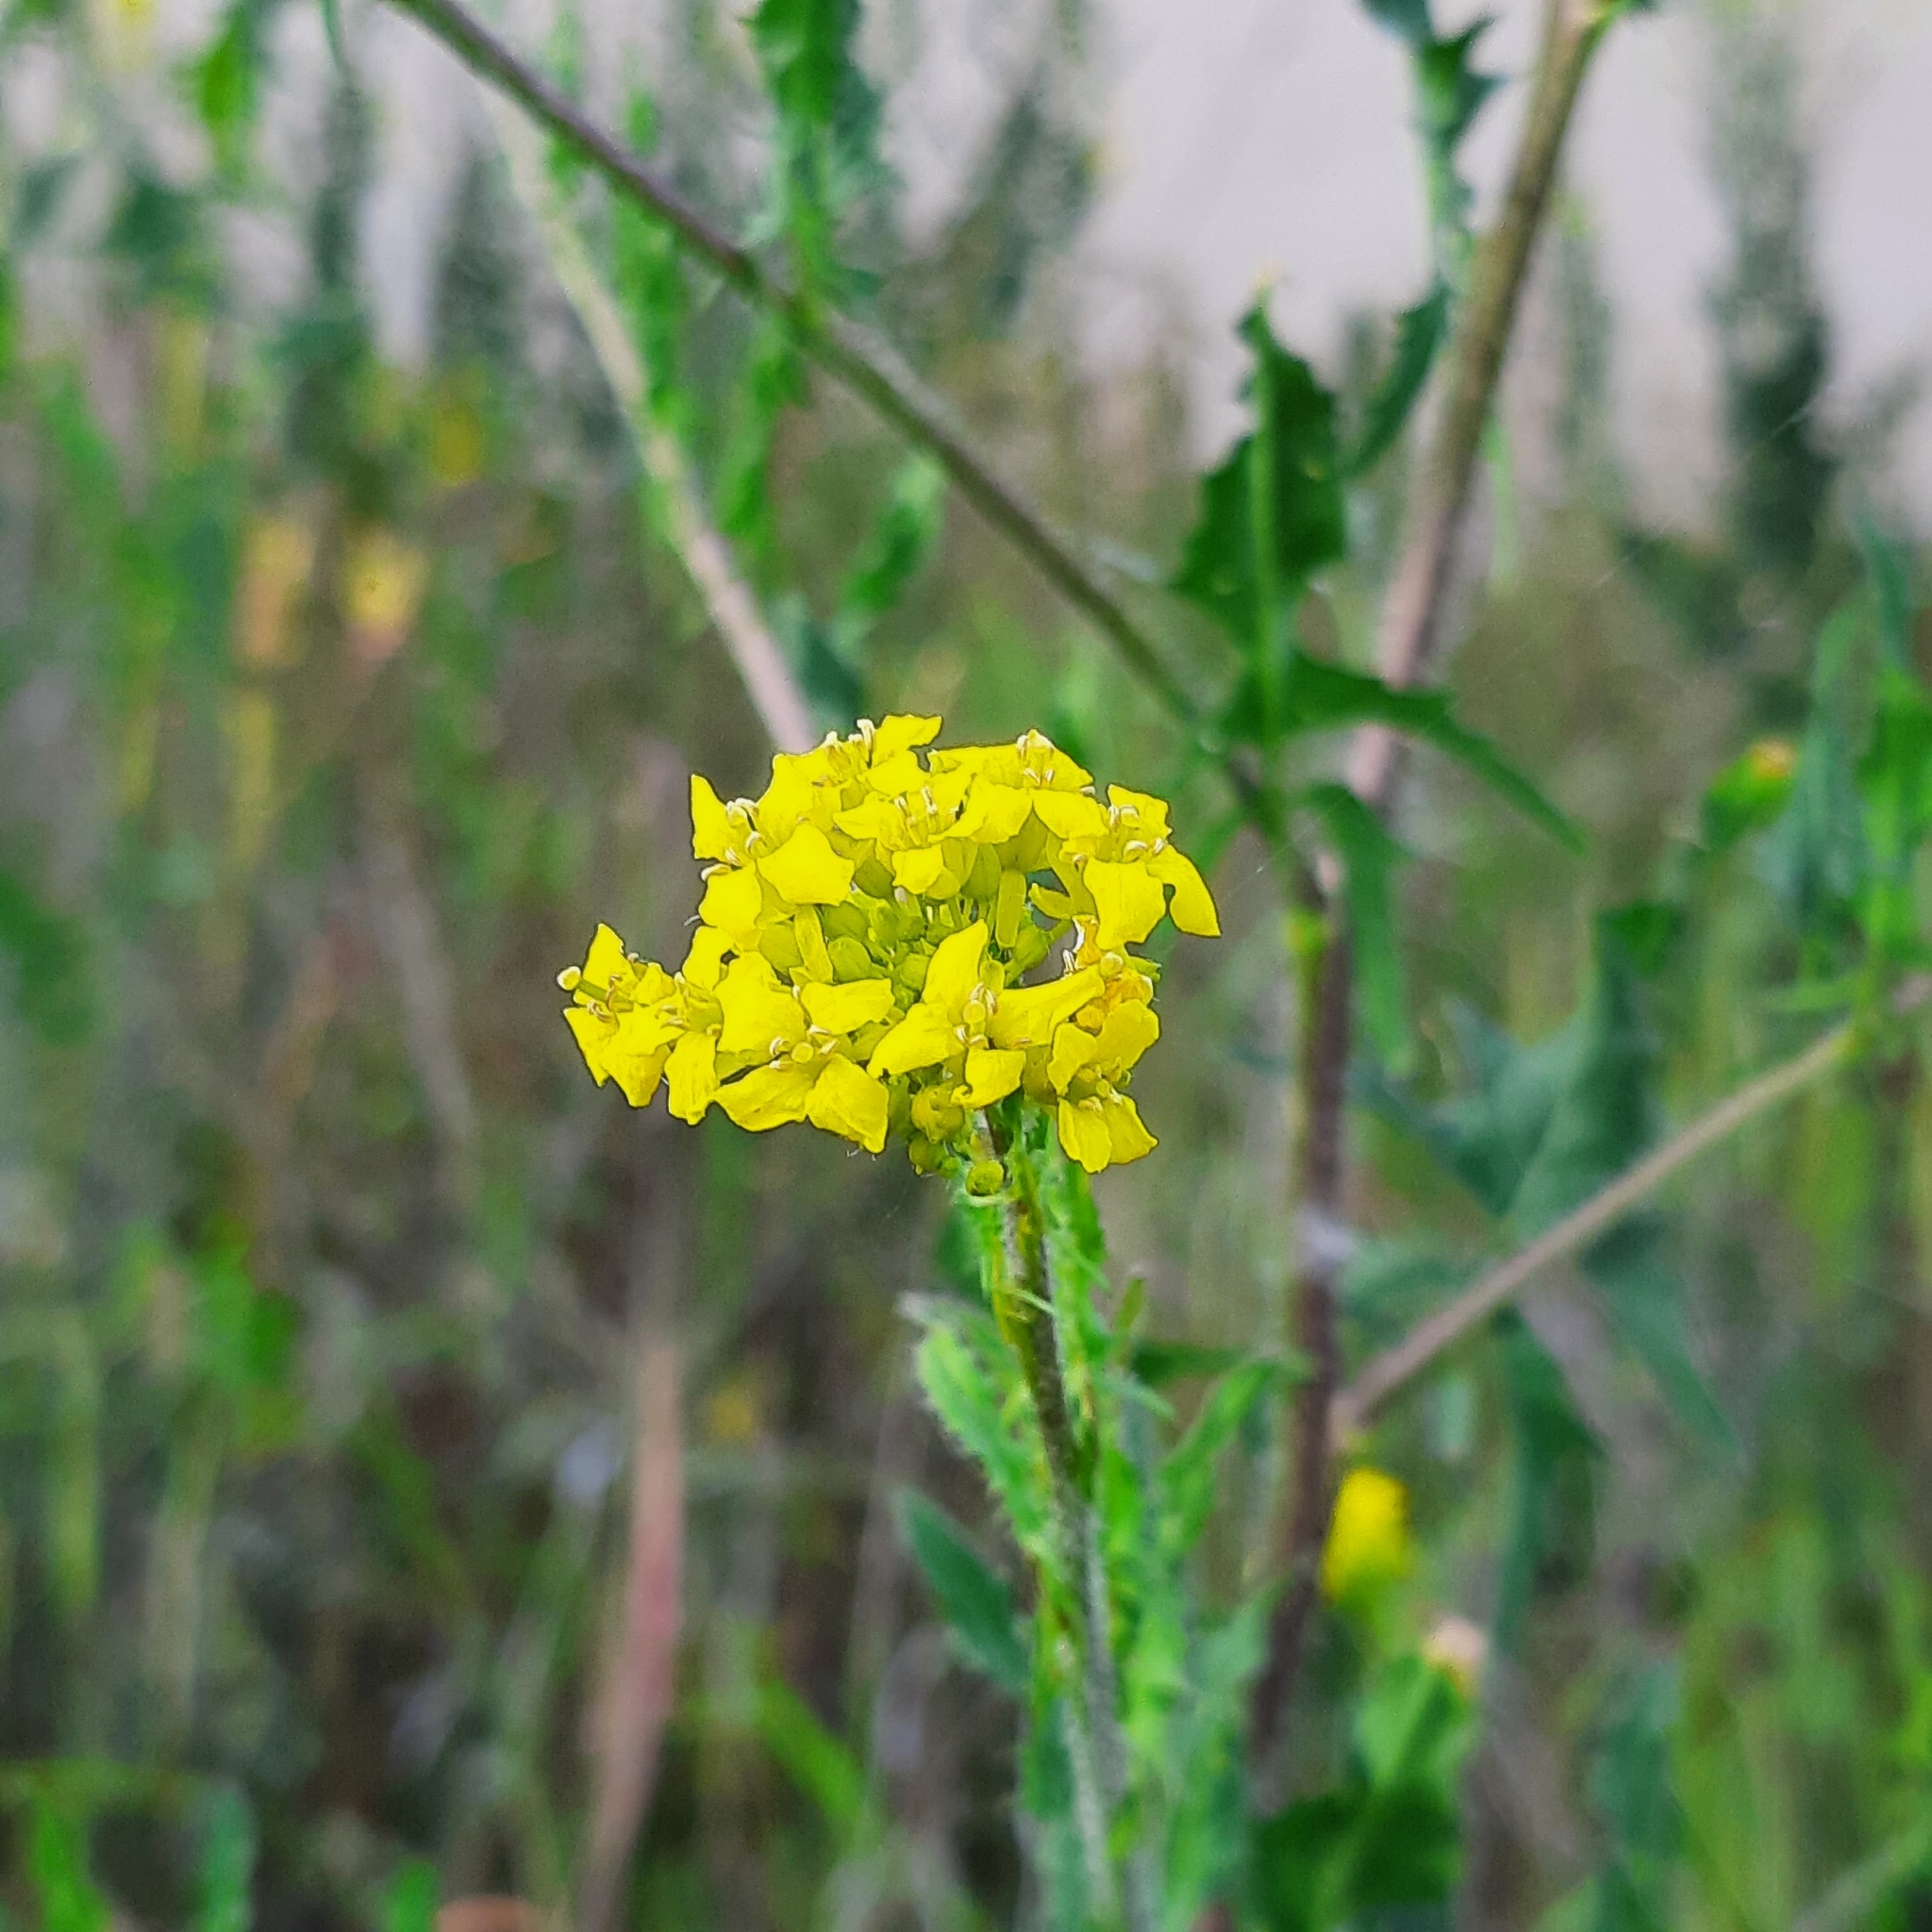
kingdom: Plantae
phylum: Tracheophyta
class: Magnoliopsida
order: Brassicales
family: Brassicaceae
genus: Sisymbrium
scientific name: Sisymbrium loeselii
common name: False london-rocket
